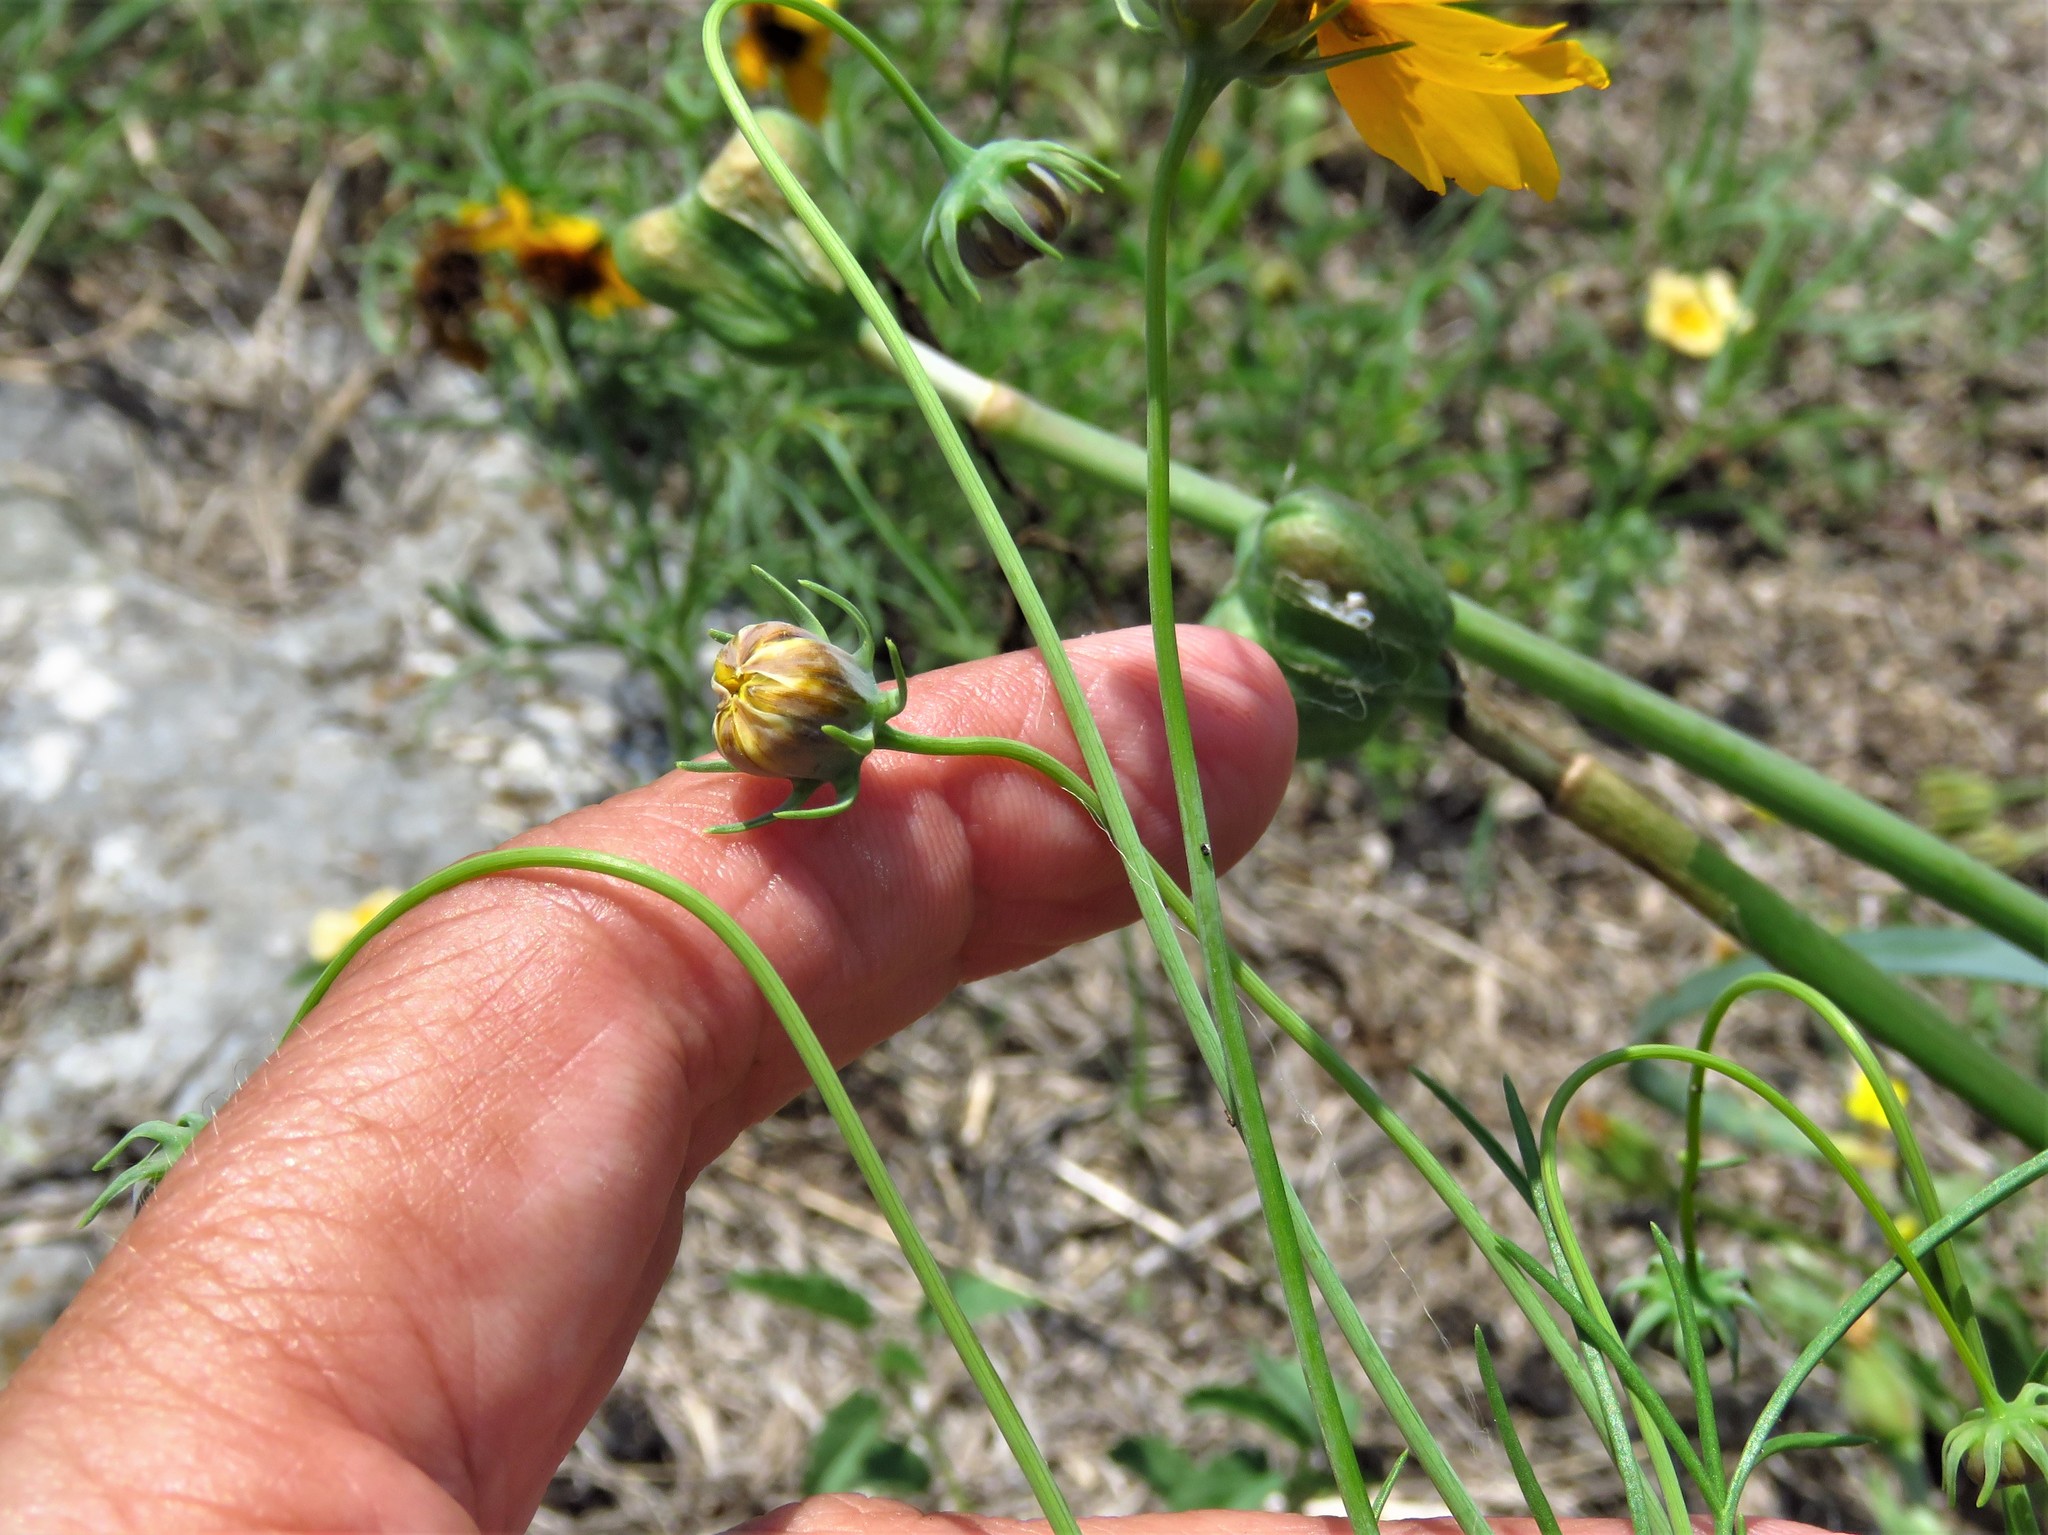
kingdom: Plantae
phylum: Tracheophyta
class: Magnoliopsida
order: Asterales
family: Asteraceae
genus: Thelesperma
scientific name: Thelesperma filifolium
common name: Stiff greenthread
